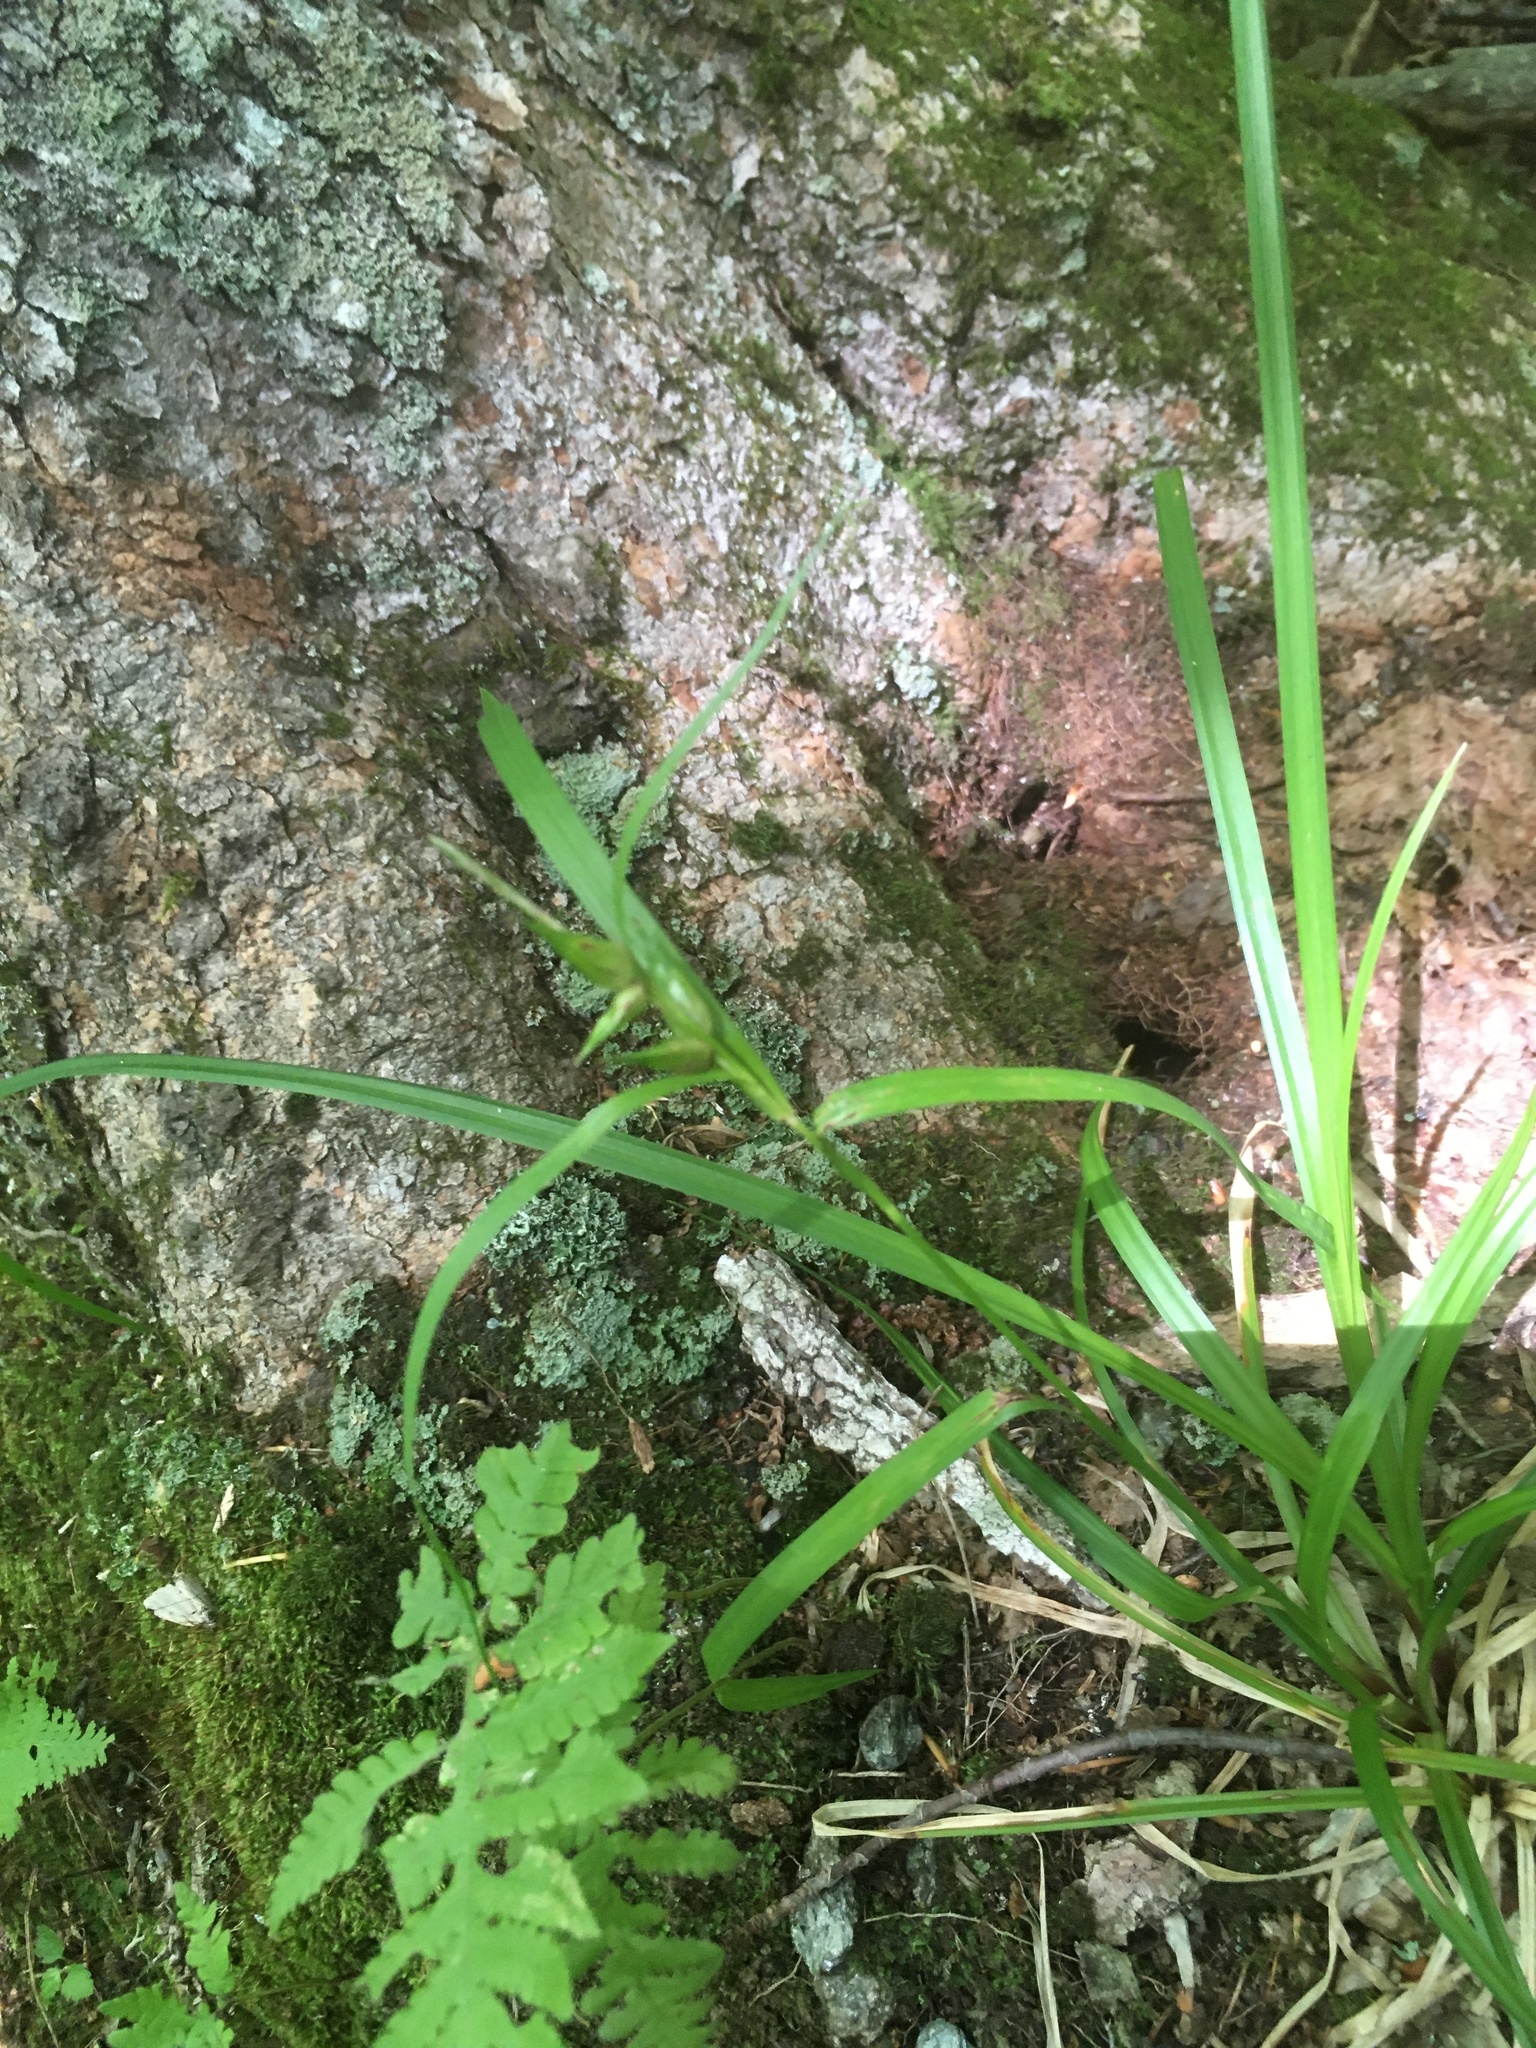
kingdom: Plantae
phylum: Tracheophyta
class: Liliopsida
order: Poales
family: Cyperaceae
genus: Carex
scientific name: Carex intumescens
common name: Greater bladder sedge
